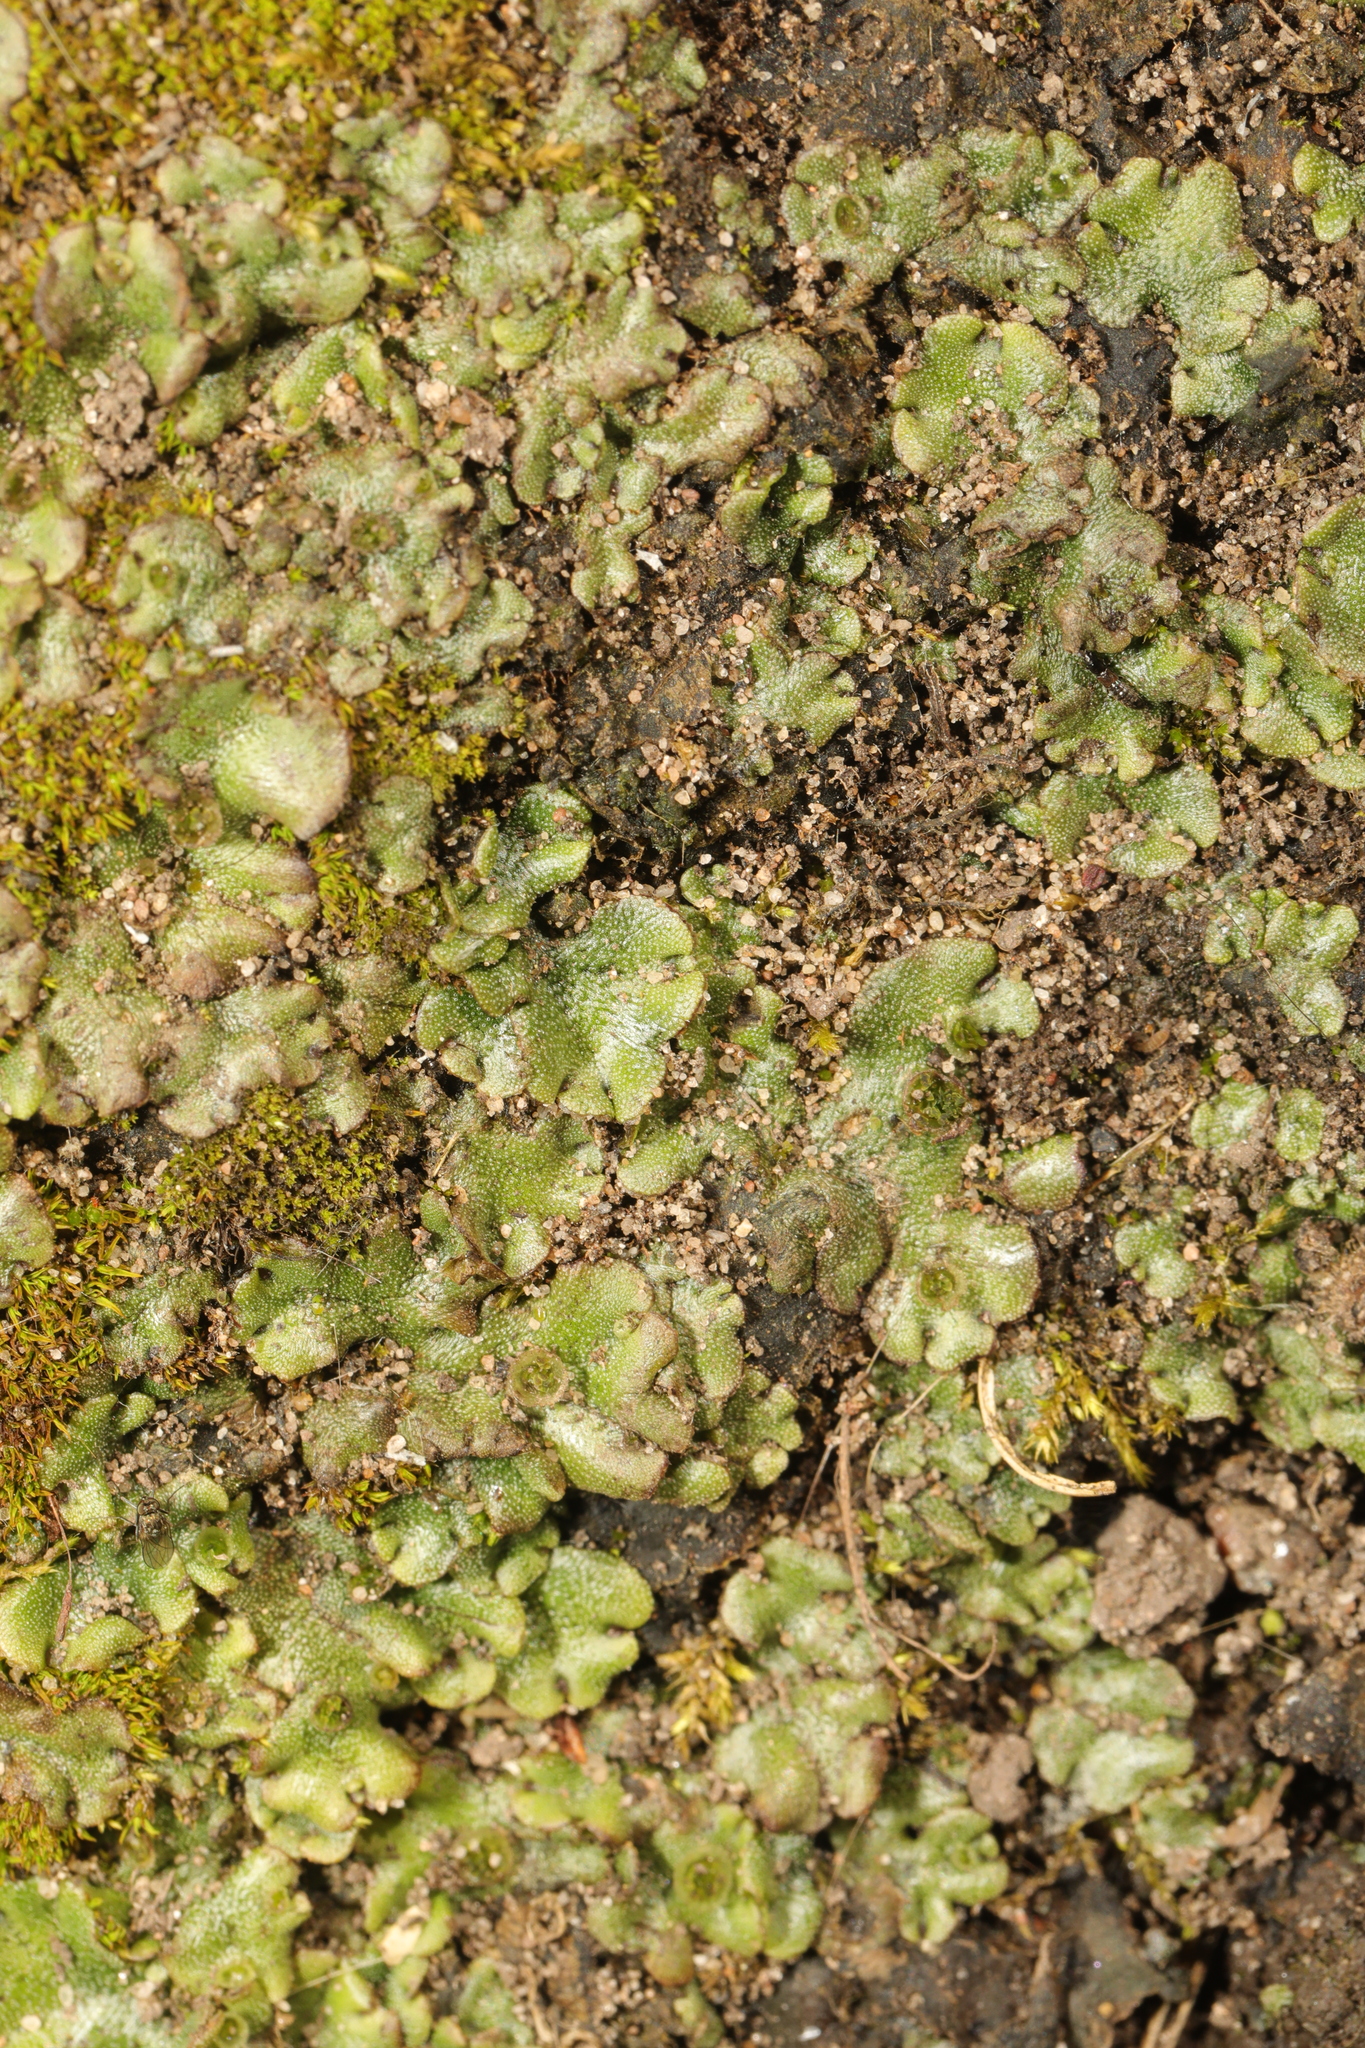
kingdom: Plantae
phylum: Marchantiophyta
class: Marchantiopsida
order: Marchantiales
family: Marchantiaceae
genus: Marchantia
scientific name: Marchantia polymorpha
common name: Common liverwort
